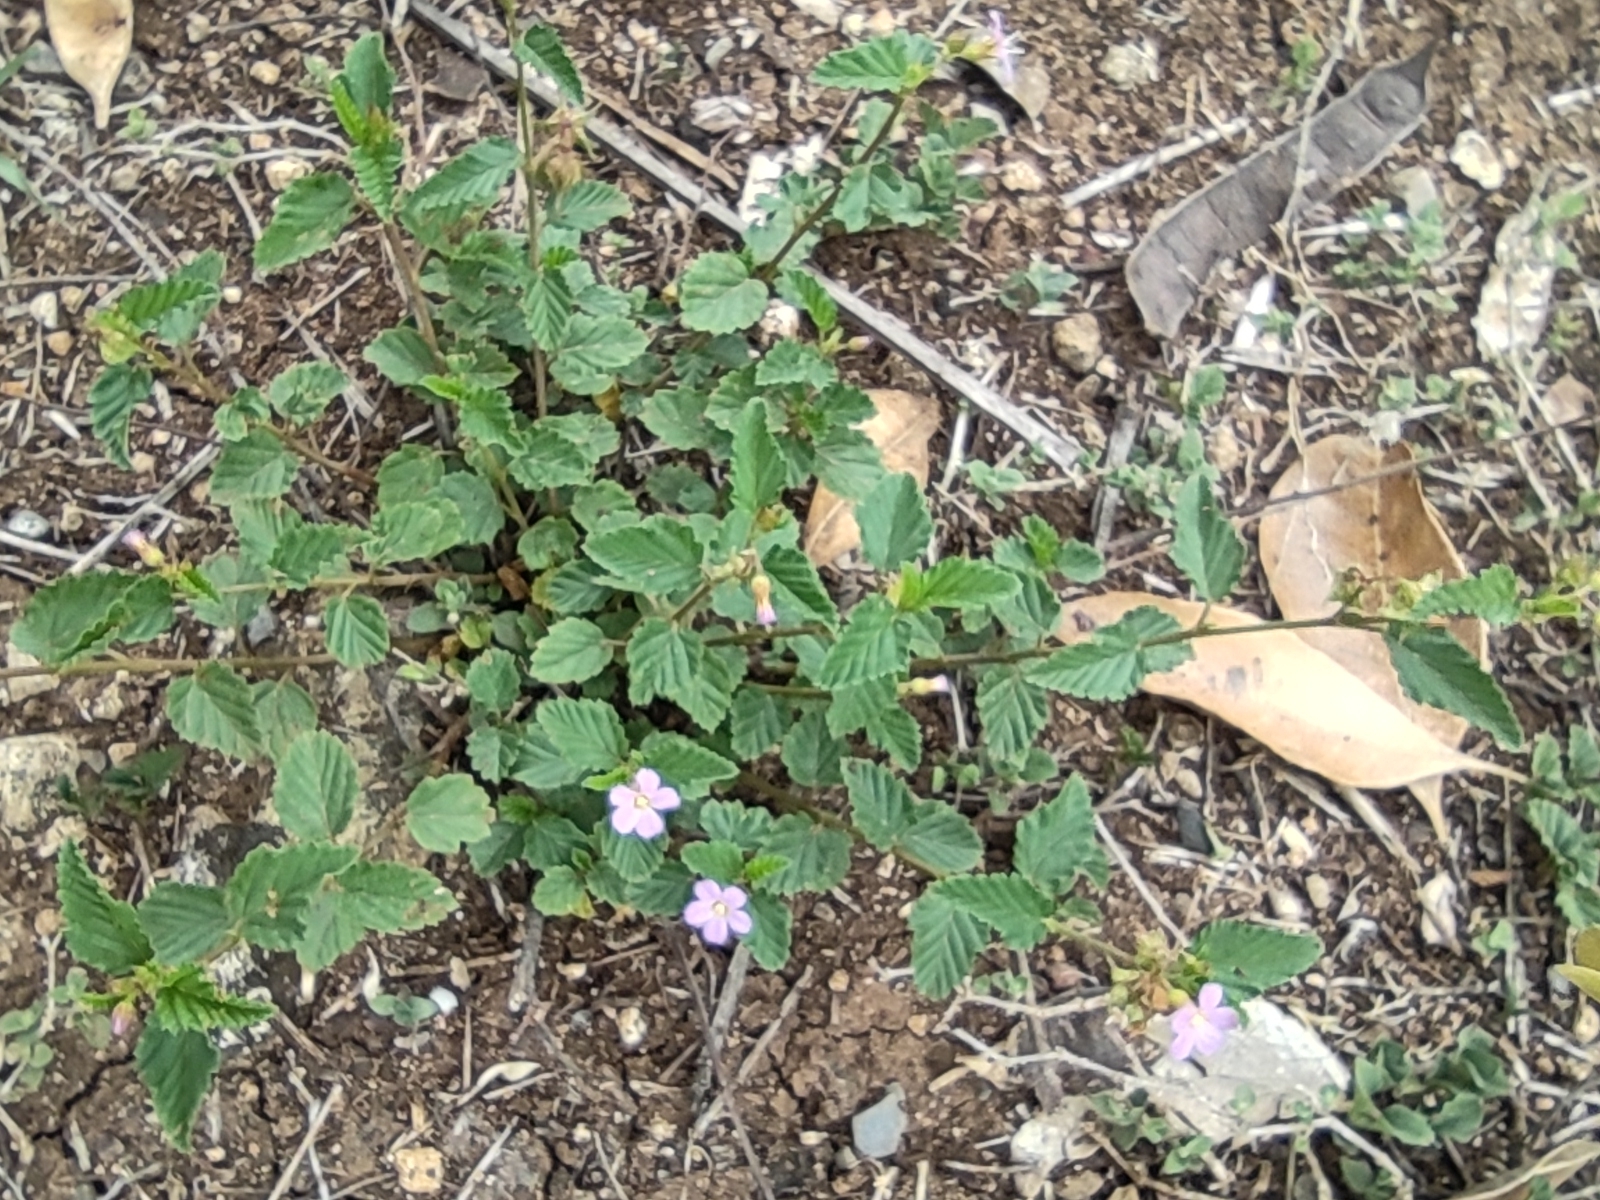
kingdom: Plantae
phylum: Tracheophyta
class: Magnoliopsida
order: Malvales
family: Malvaceae
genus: Melochia
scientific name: Melochia pyramidata
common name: Pyramidflower
